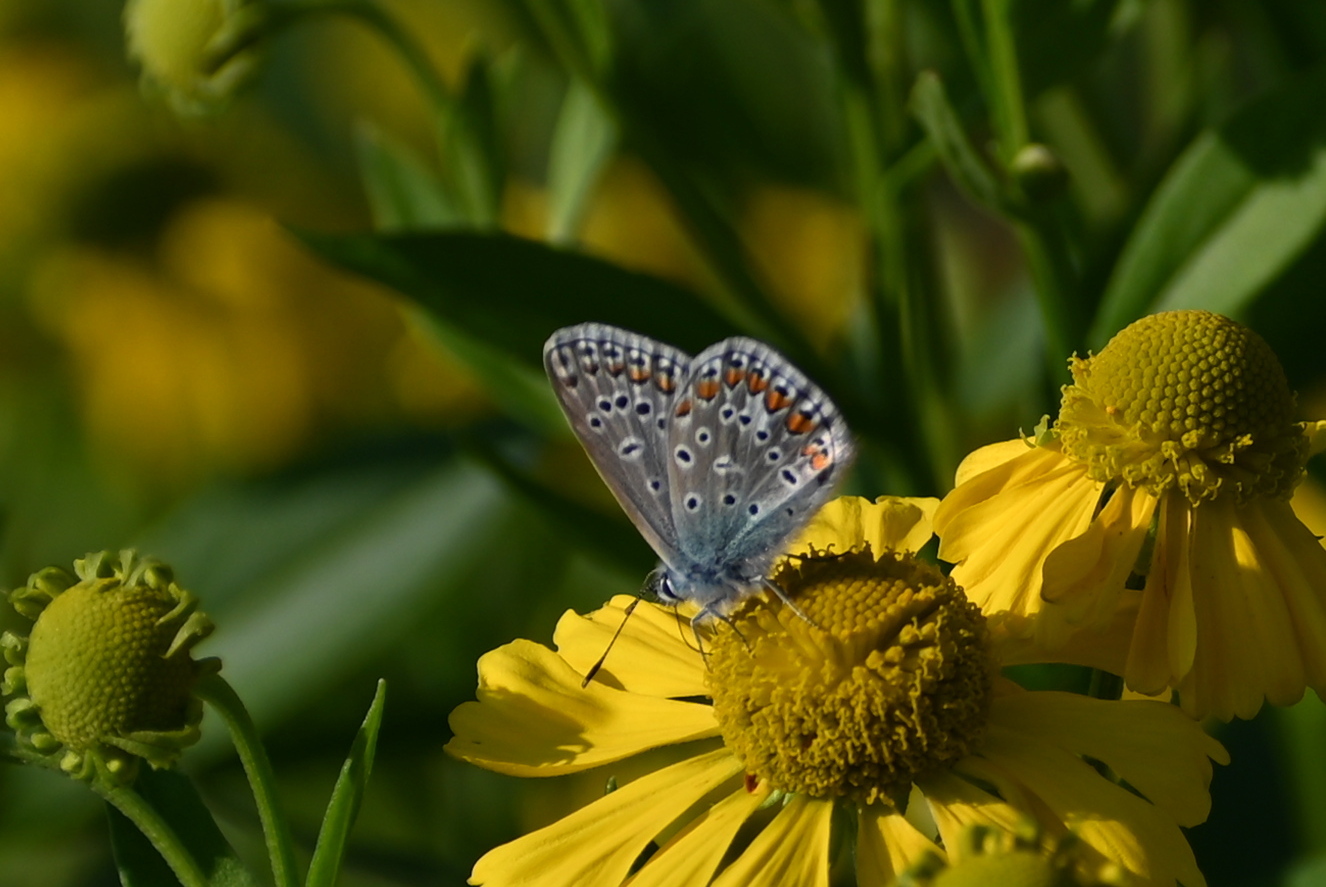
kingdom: Animalia
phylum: Arthropoda
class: Insecta
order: Lepidoptera
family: Lycaenidae
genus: Polyommatus
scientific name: Polyommatus icarus
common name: Common blue
